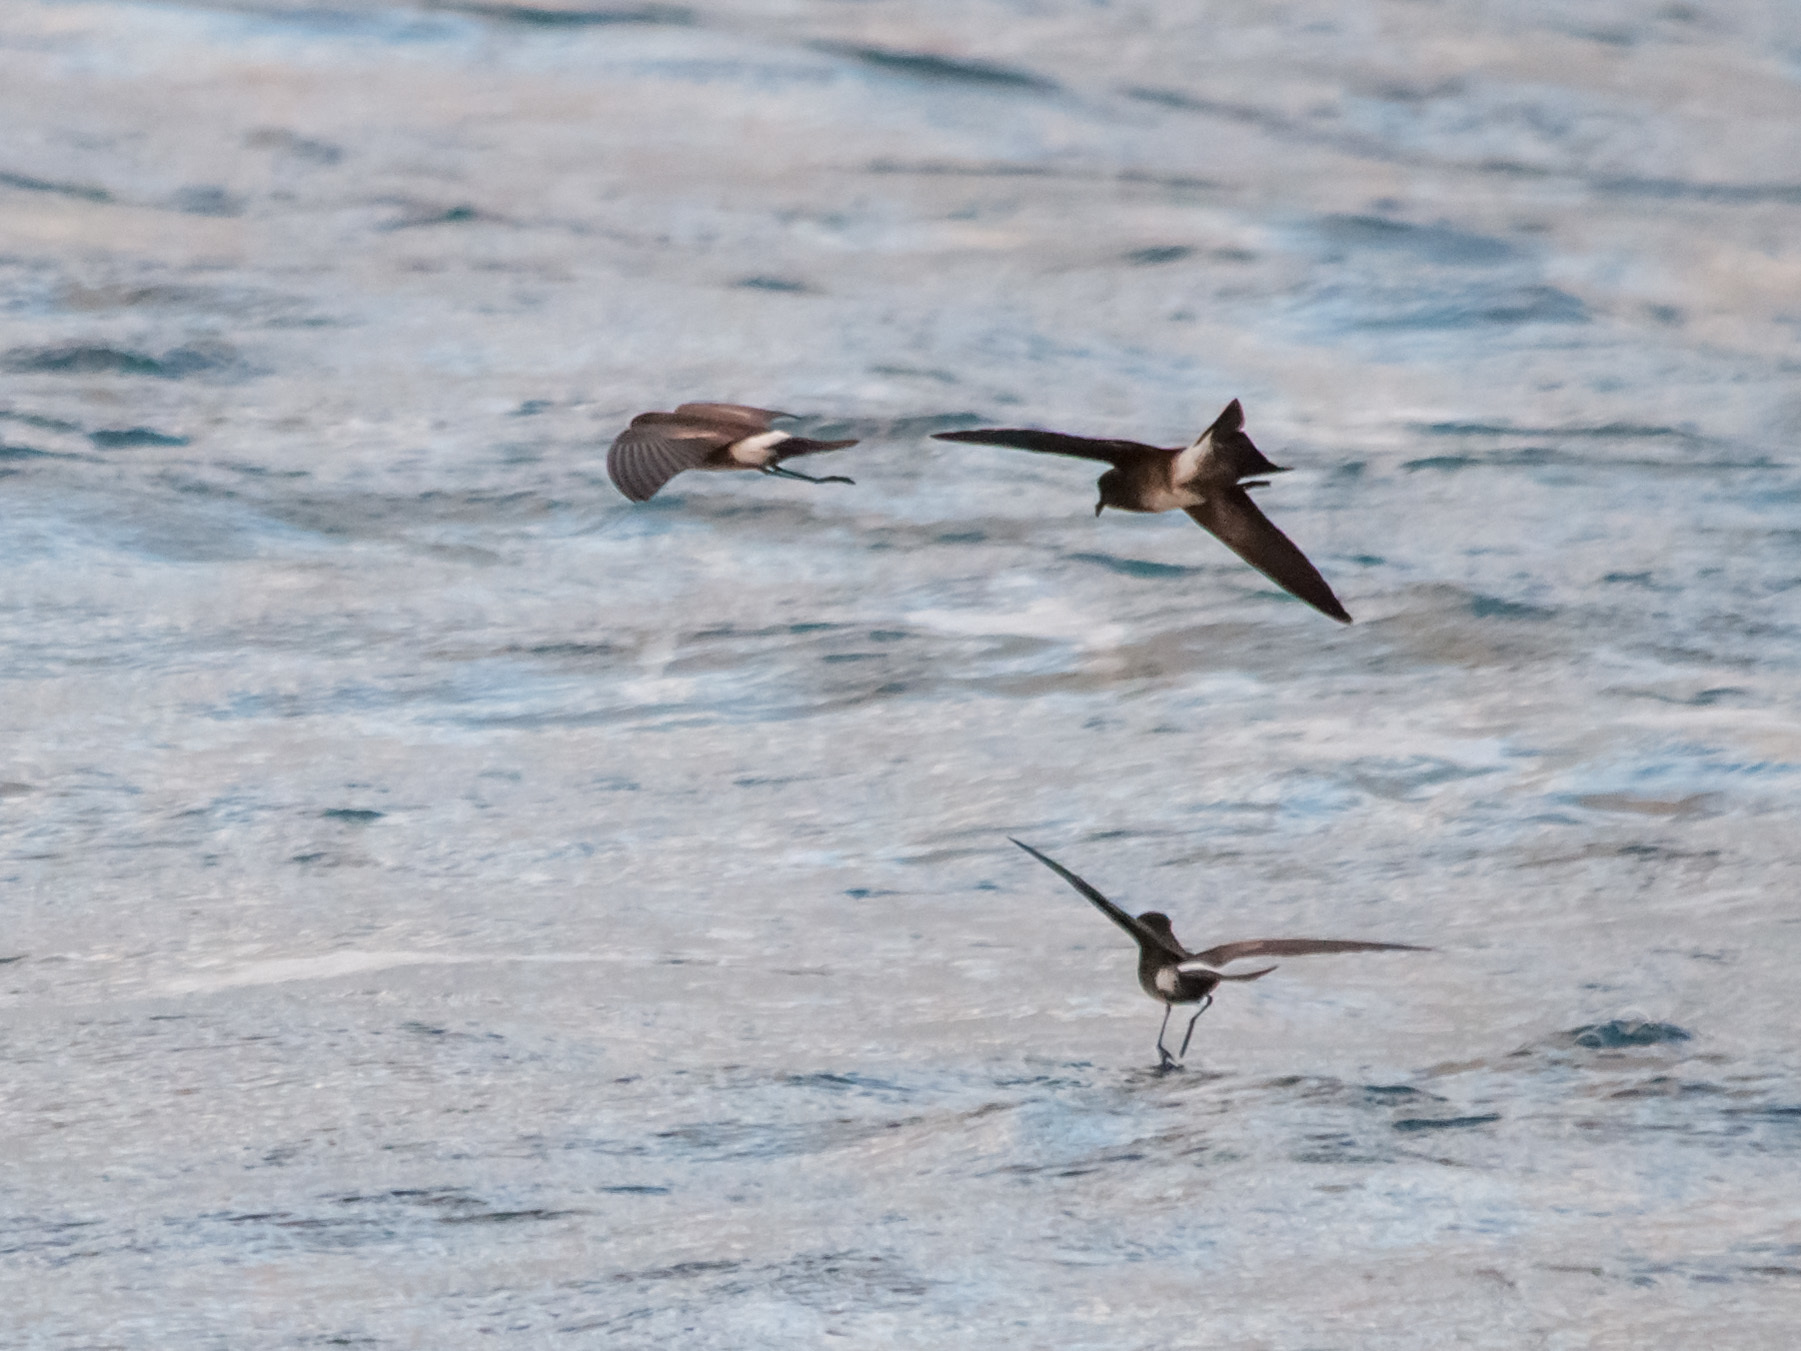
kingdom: Animalia
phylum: Chordata
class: Aves
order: Procellariiformes
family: Hydrobatidae
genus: Oceanites
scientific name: Oceanites gracilis
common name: Elliot's storm-petrel
